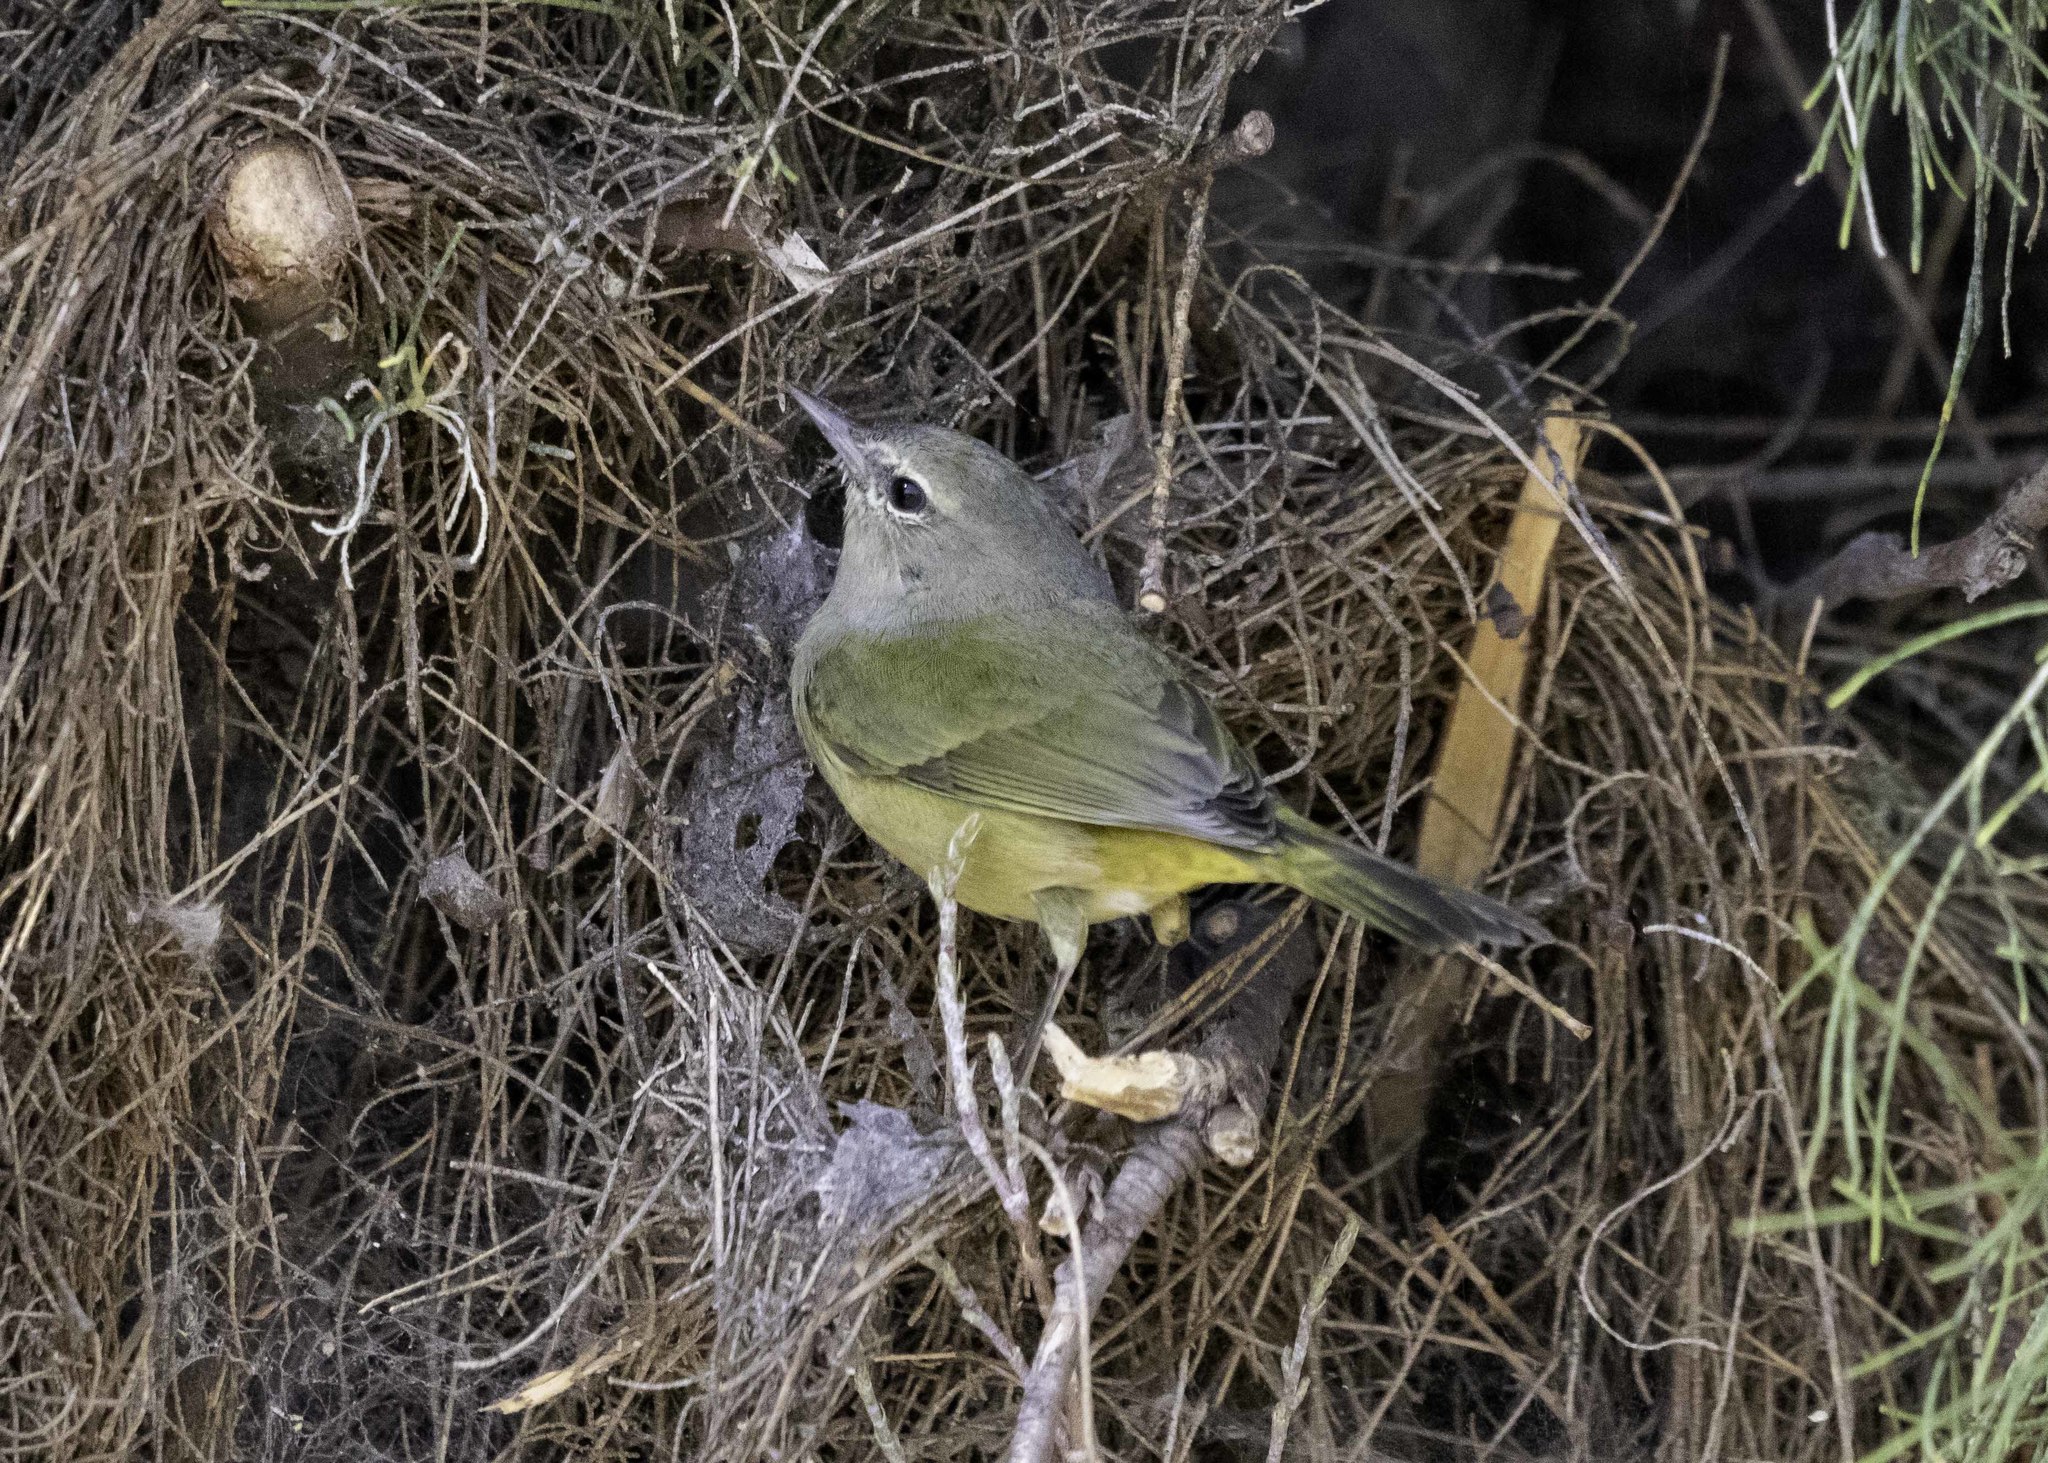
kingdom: Animalia
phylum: Chordata
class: Aves
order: Passeriformes
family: Parulidae
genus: Leiothlypis
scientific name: Leiothlypis celata
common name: Orange-crowned warbler
